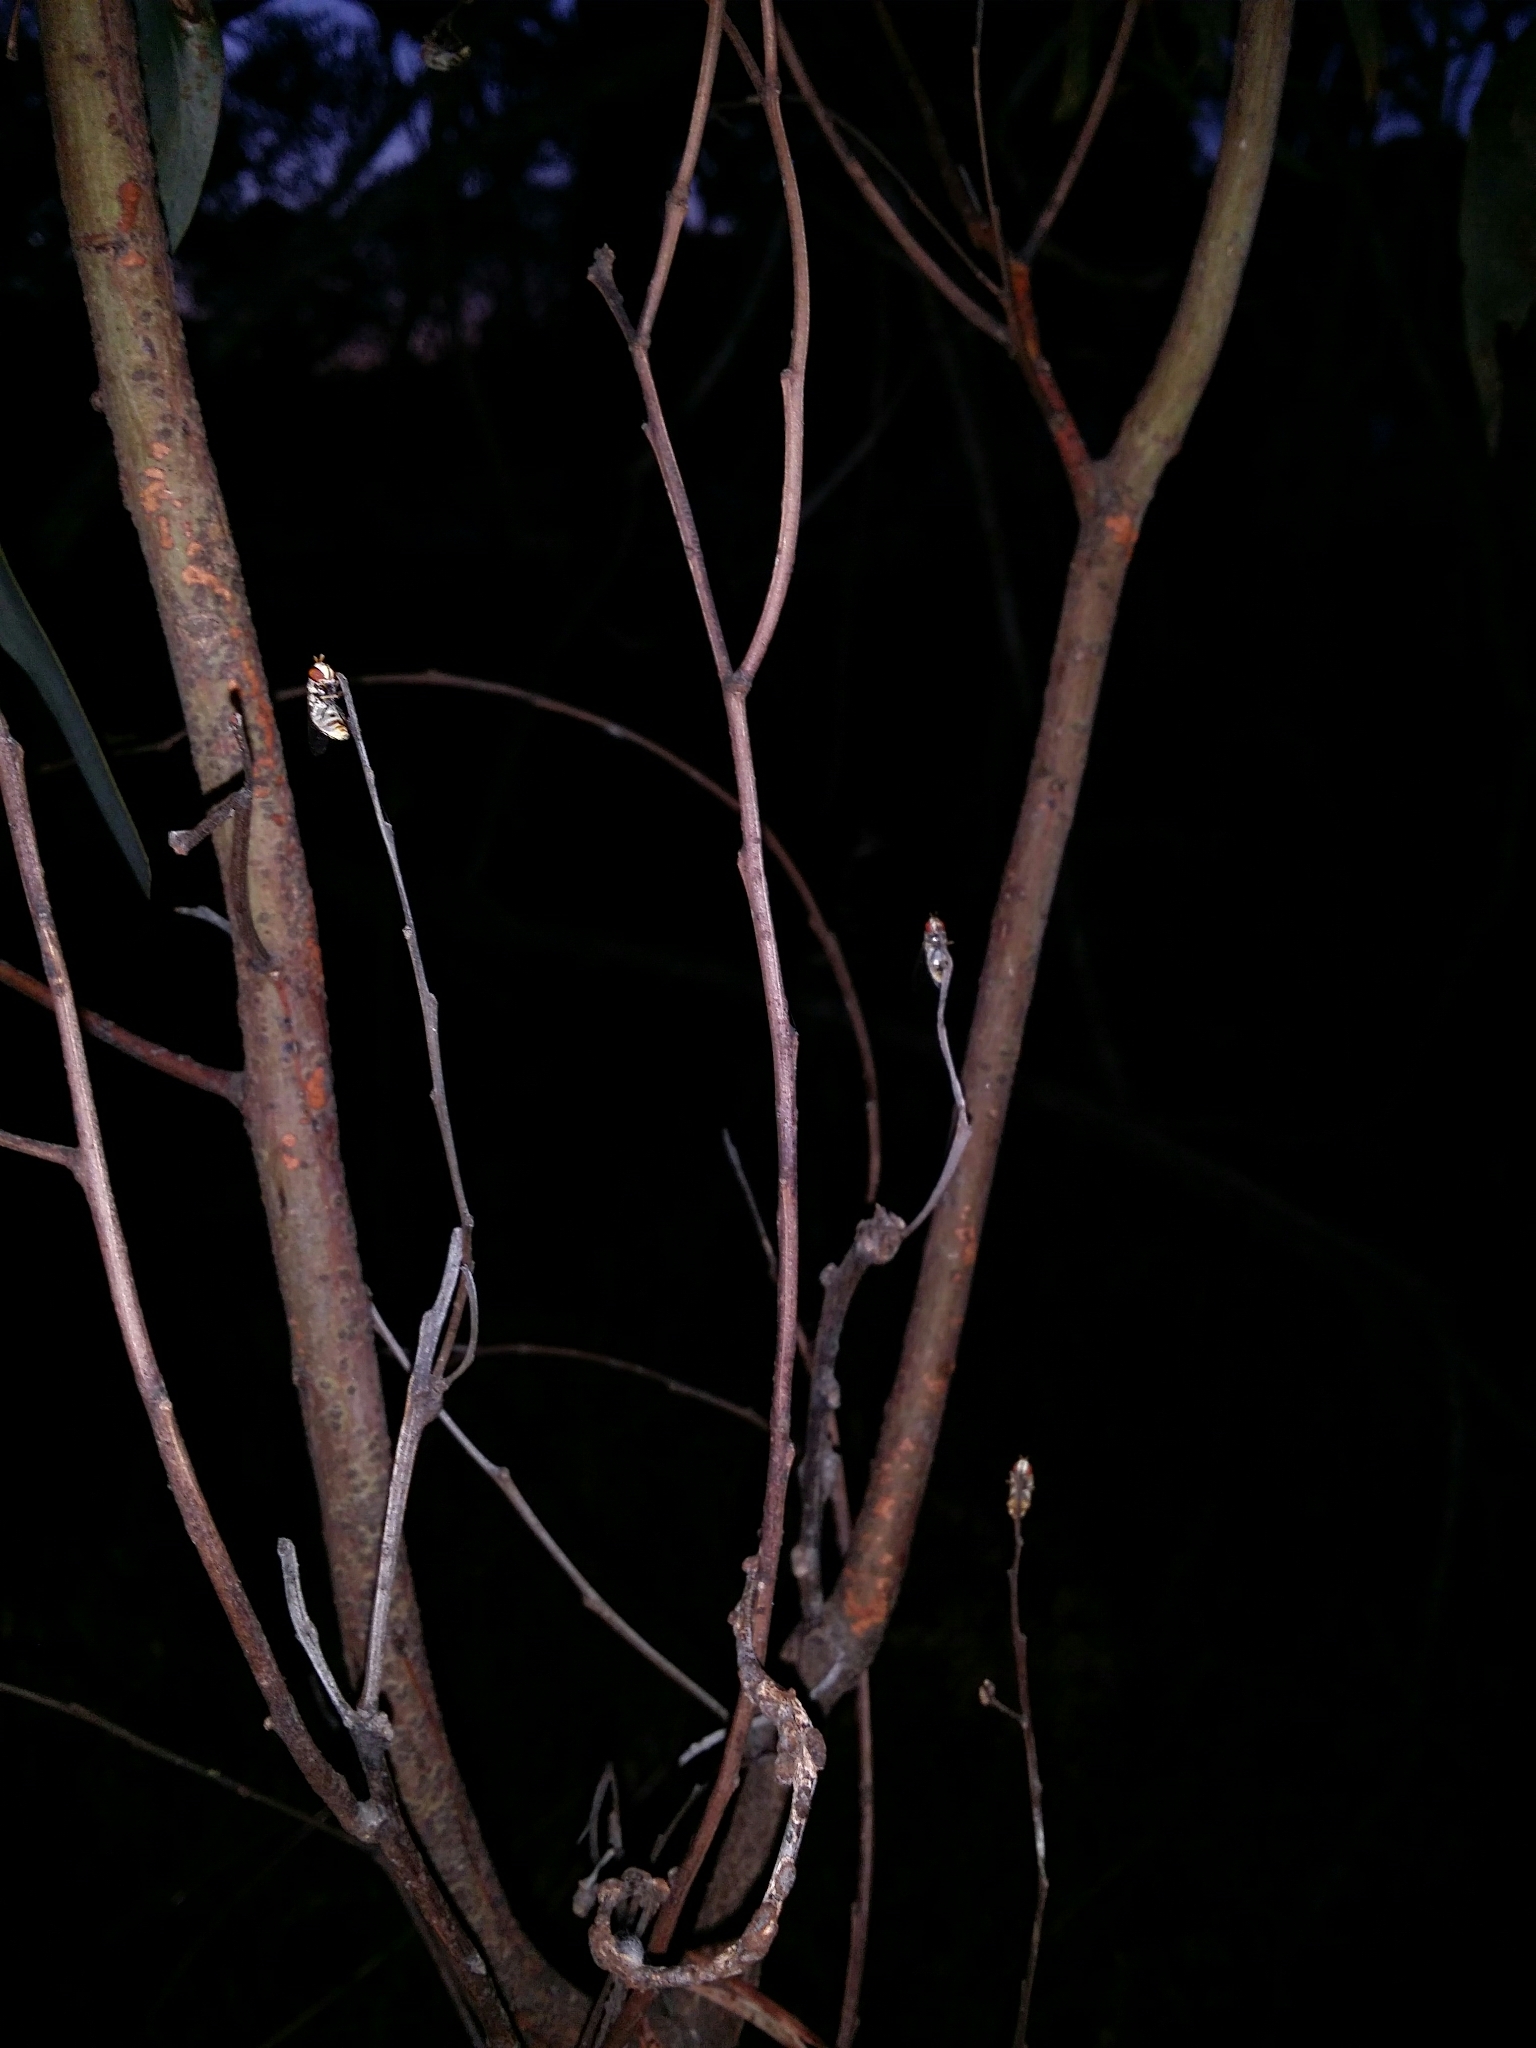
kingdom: Animalia
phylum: Arthropoda
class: Insecta
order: Diptera
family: Syrphidae
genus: Simosyrphus
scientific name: Simosyrphus grandicornis
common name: Hoverfly
